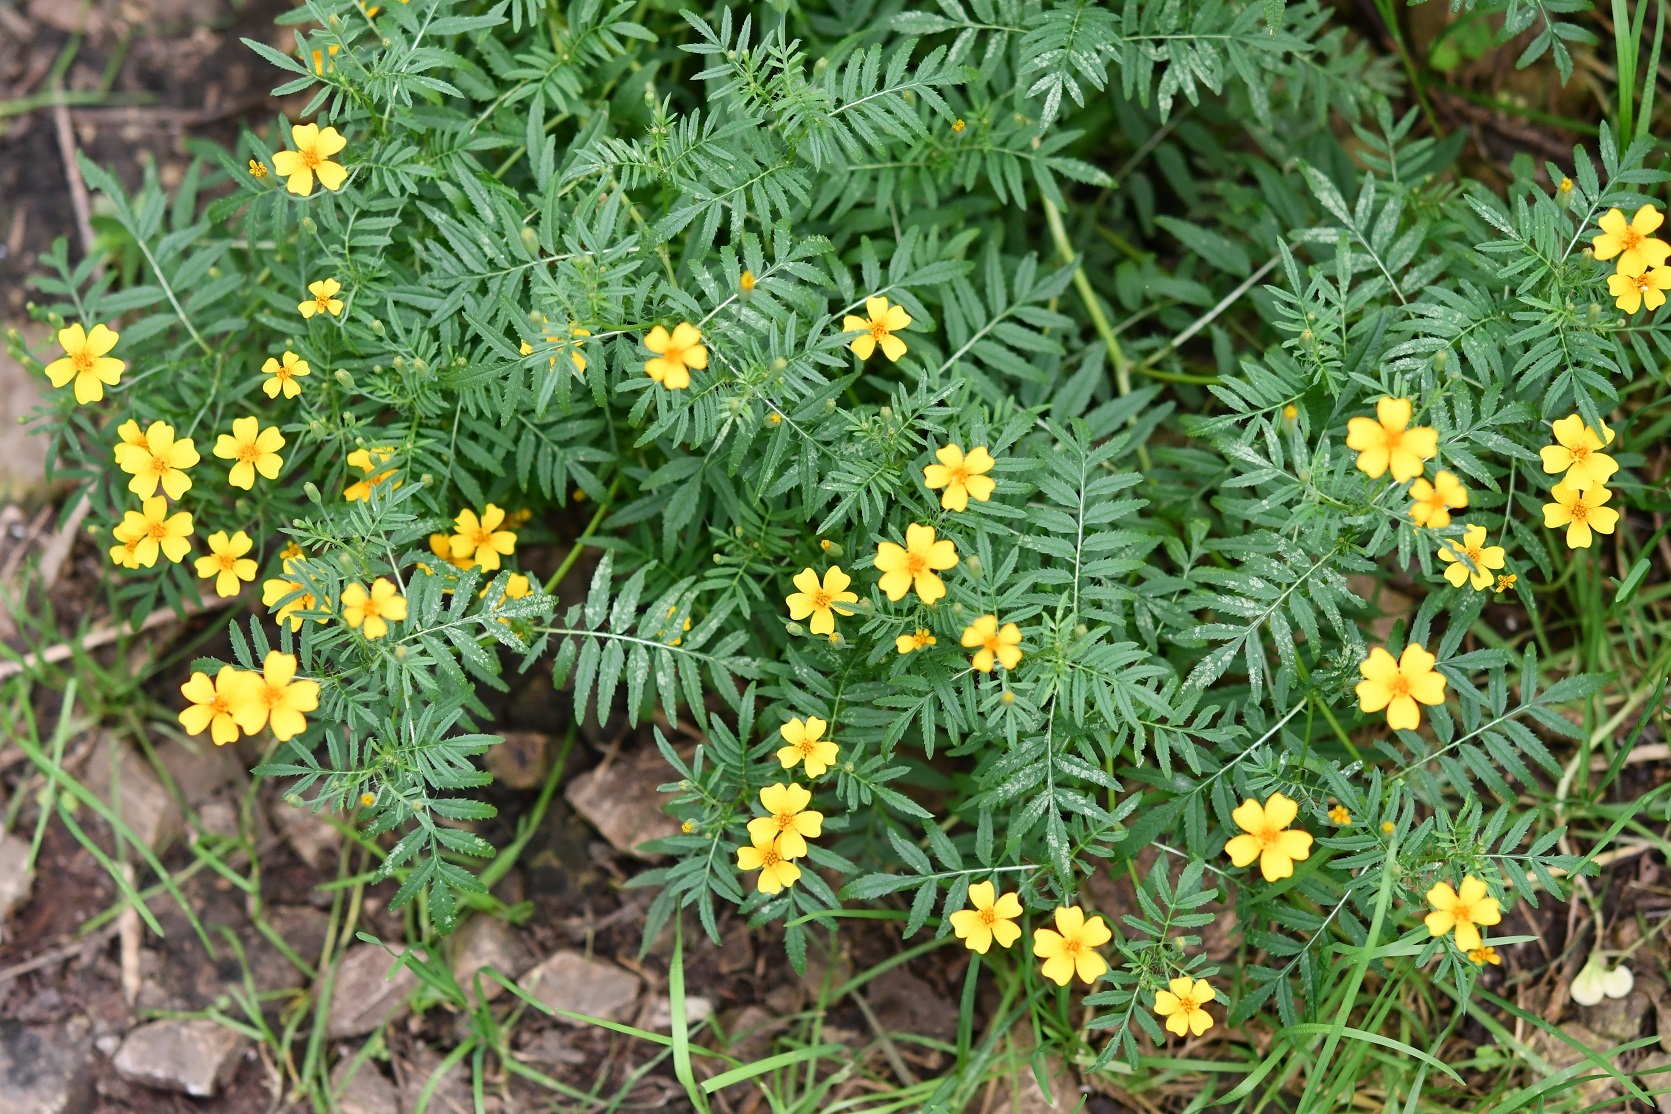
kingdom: Plantae
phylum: Tracheophyta
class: Magnoliopsida
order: Asterales
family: Asteraceae
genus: Tagetes
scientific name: Tagetes tenuifolia
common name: Signet marigold
